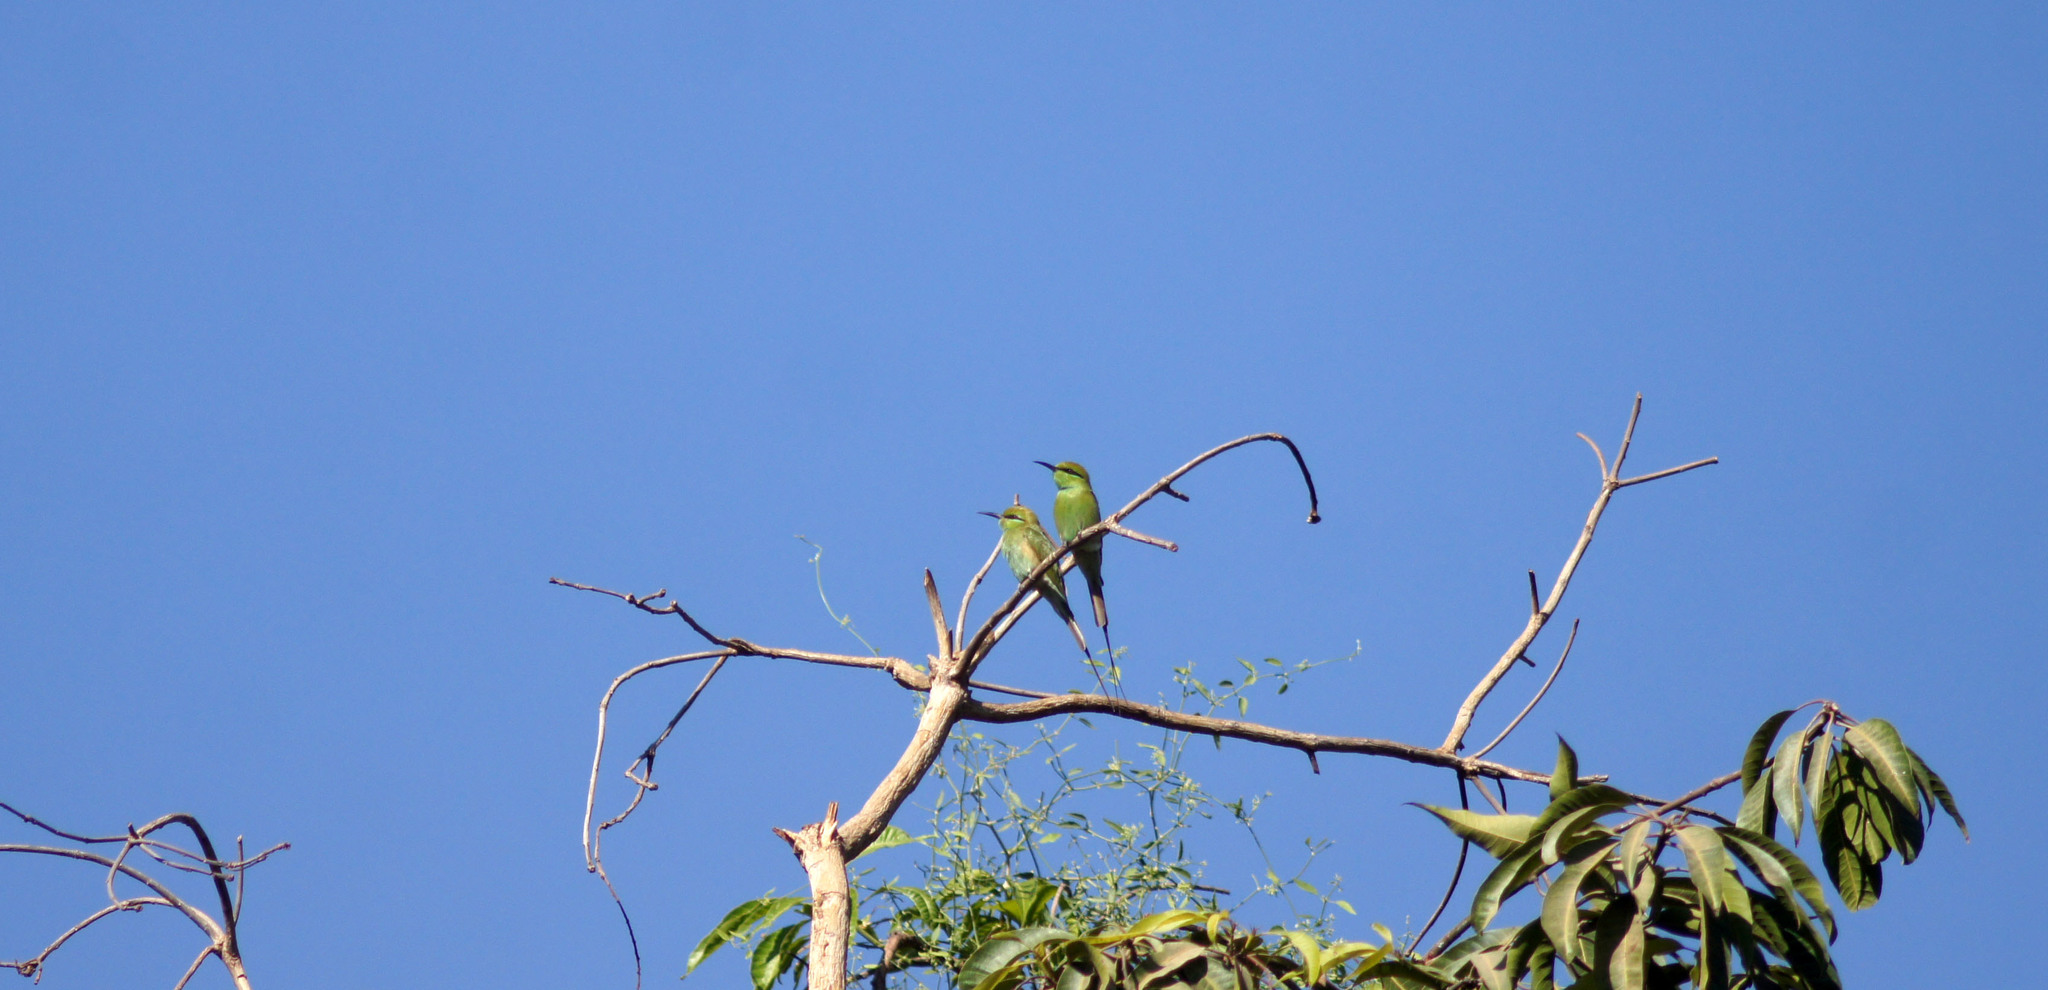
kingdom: Animalia
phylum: Chordata
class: Aves
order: Coraciiformes
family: Meropidae
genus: Merops
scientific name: Merops viridissimus
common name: African green bee-eater
